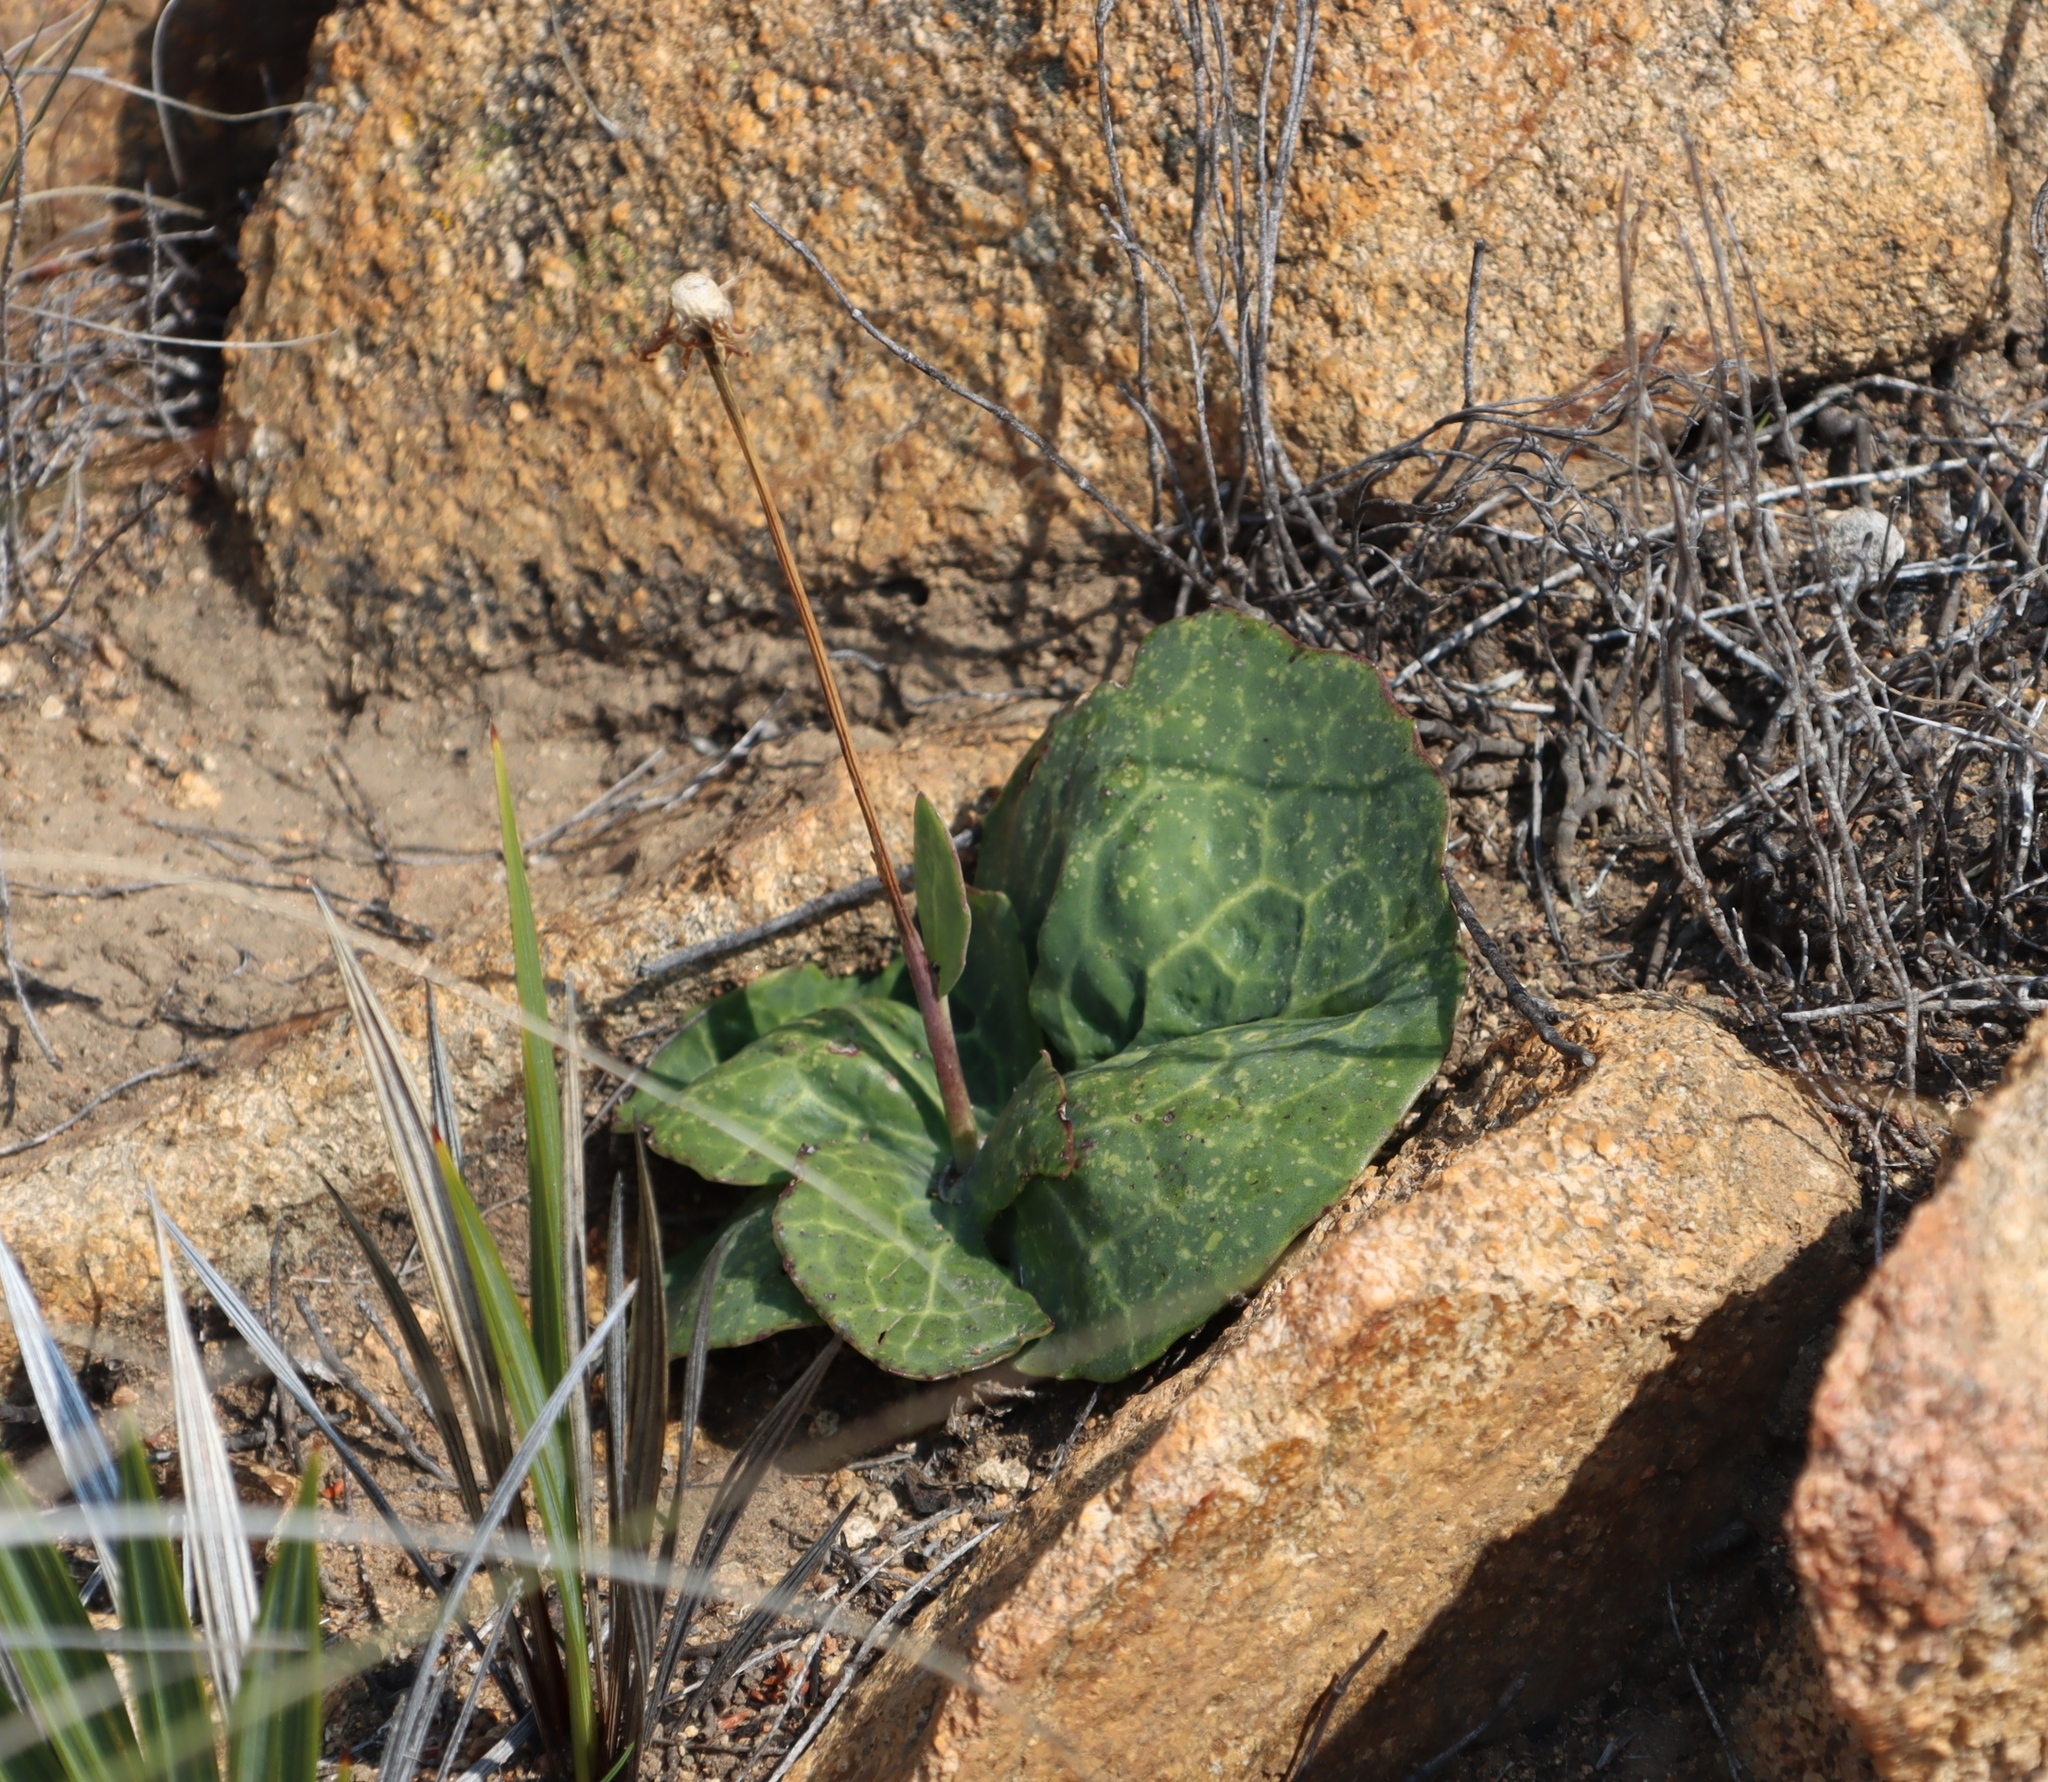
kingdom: Plantae
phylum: Tracheophyta
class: Magnoliopsida
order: Asterales
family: Asteraceae
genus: Othonna
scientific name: Othonna macrophylla
